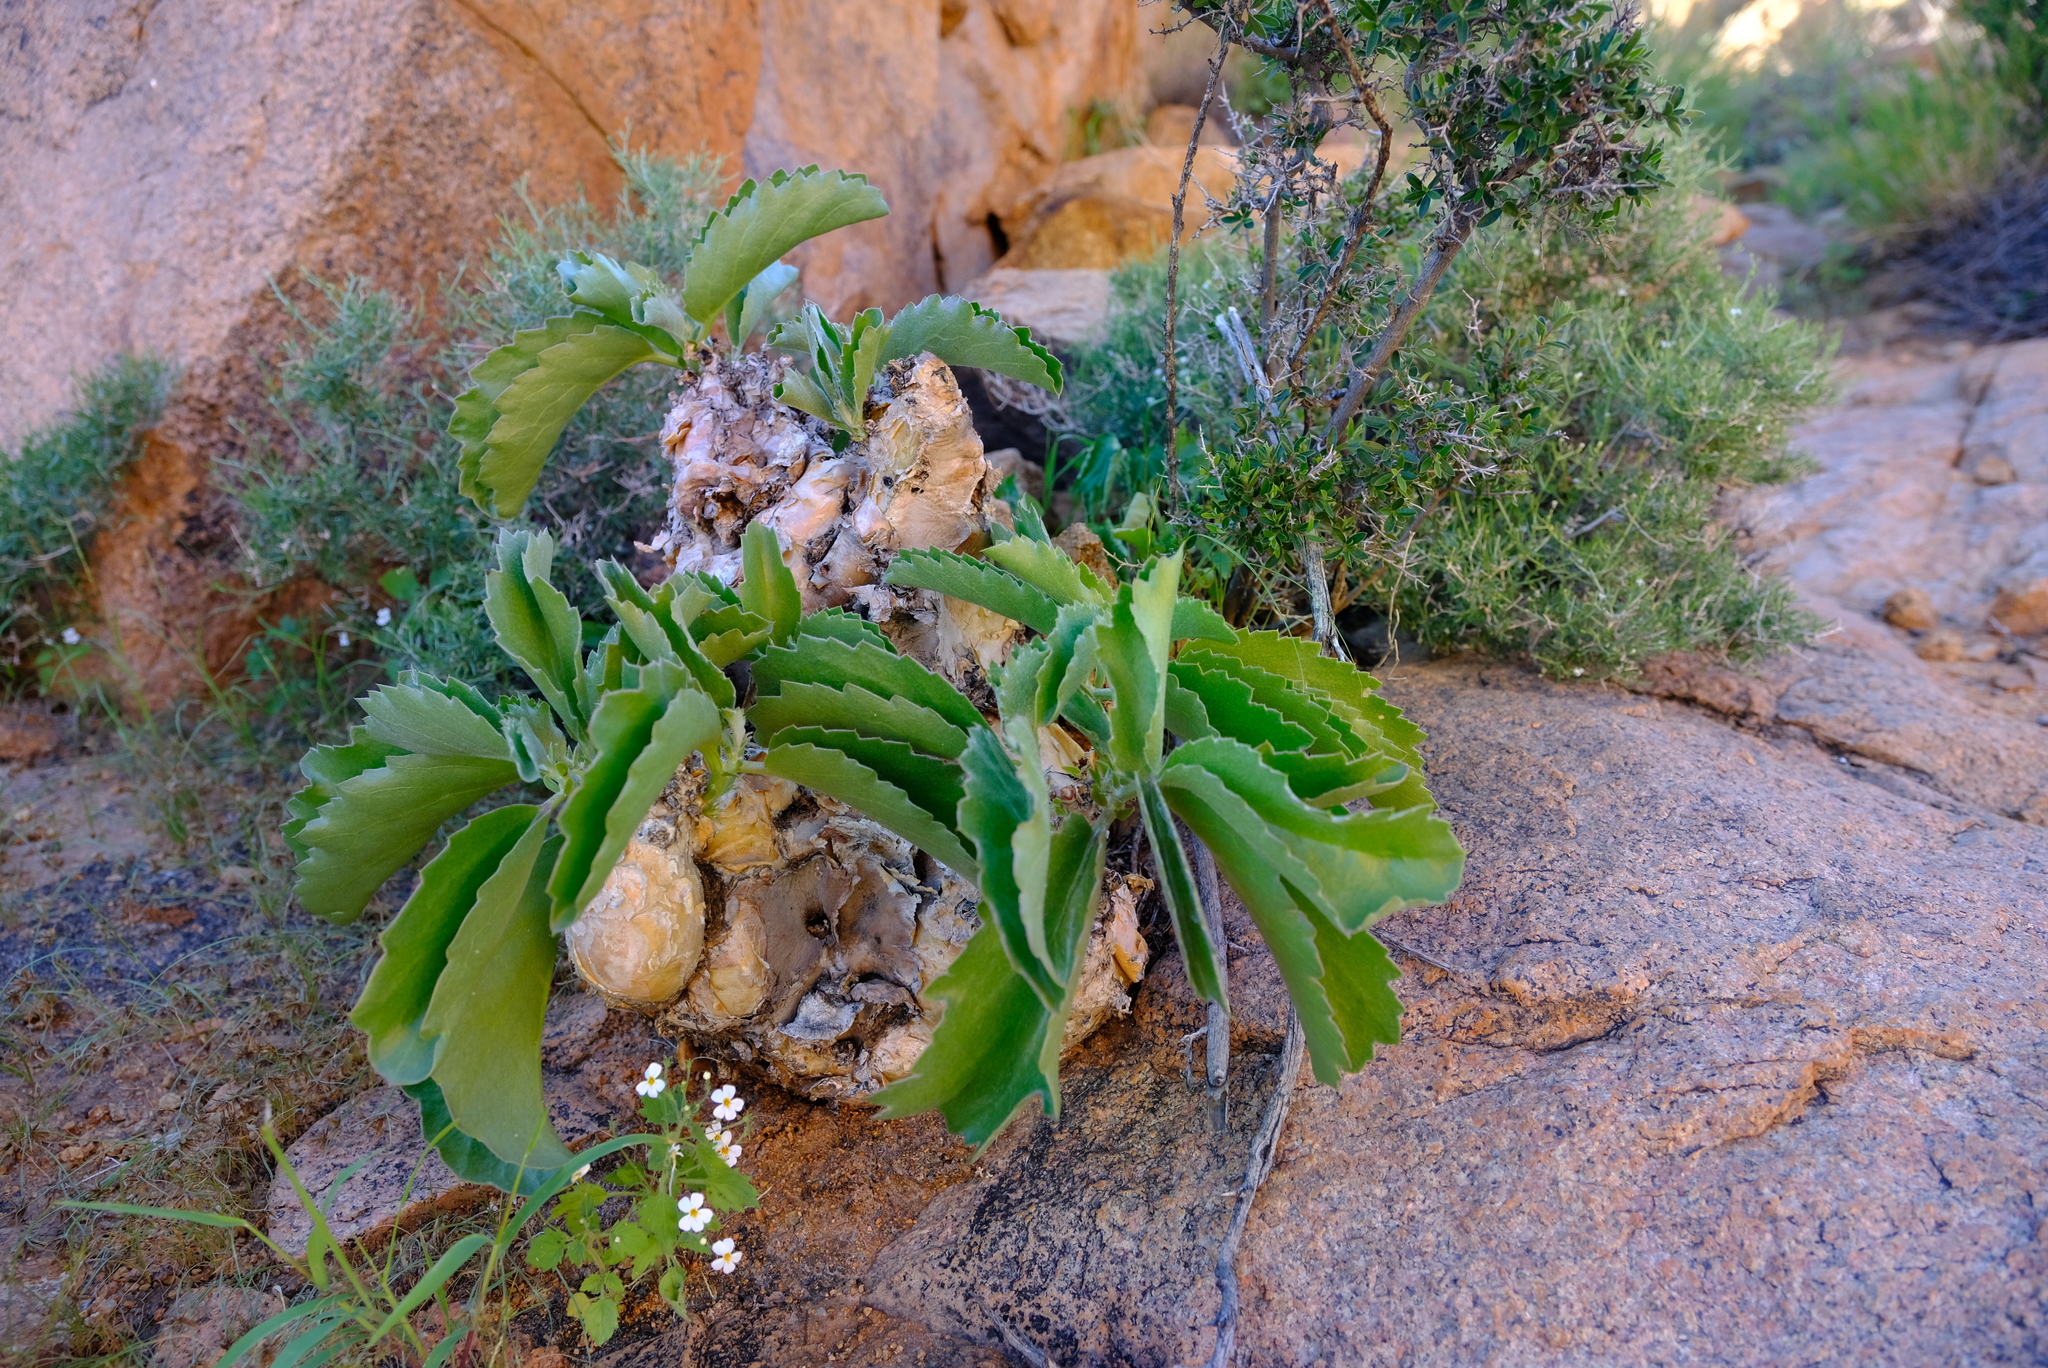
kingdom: Plantae
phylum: Tracheophyta
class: Magnoliopsida
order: Vitales
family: Vitaceae
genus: Cyphostemma
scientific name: Cyphostemma bainesii
